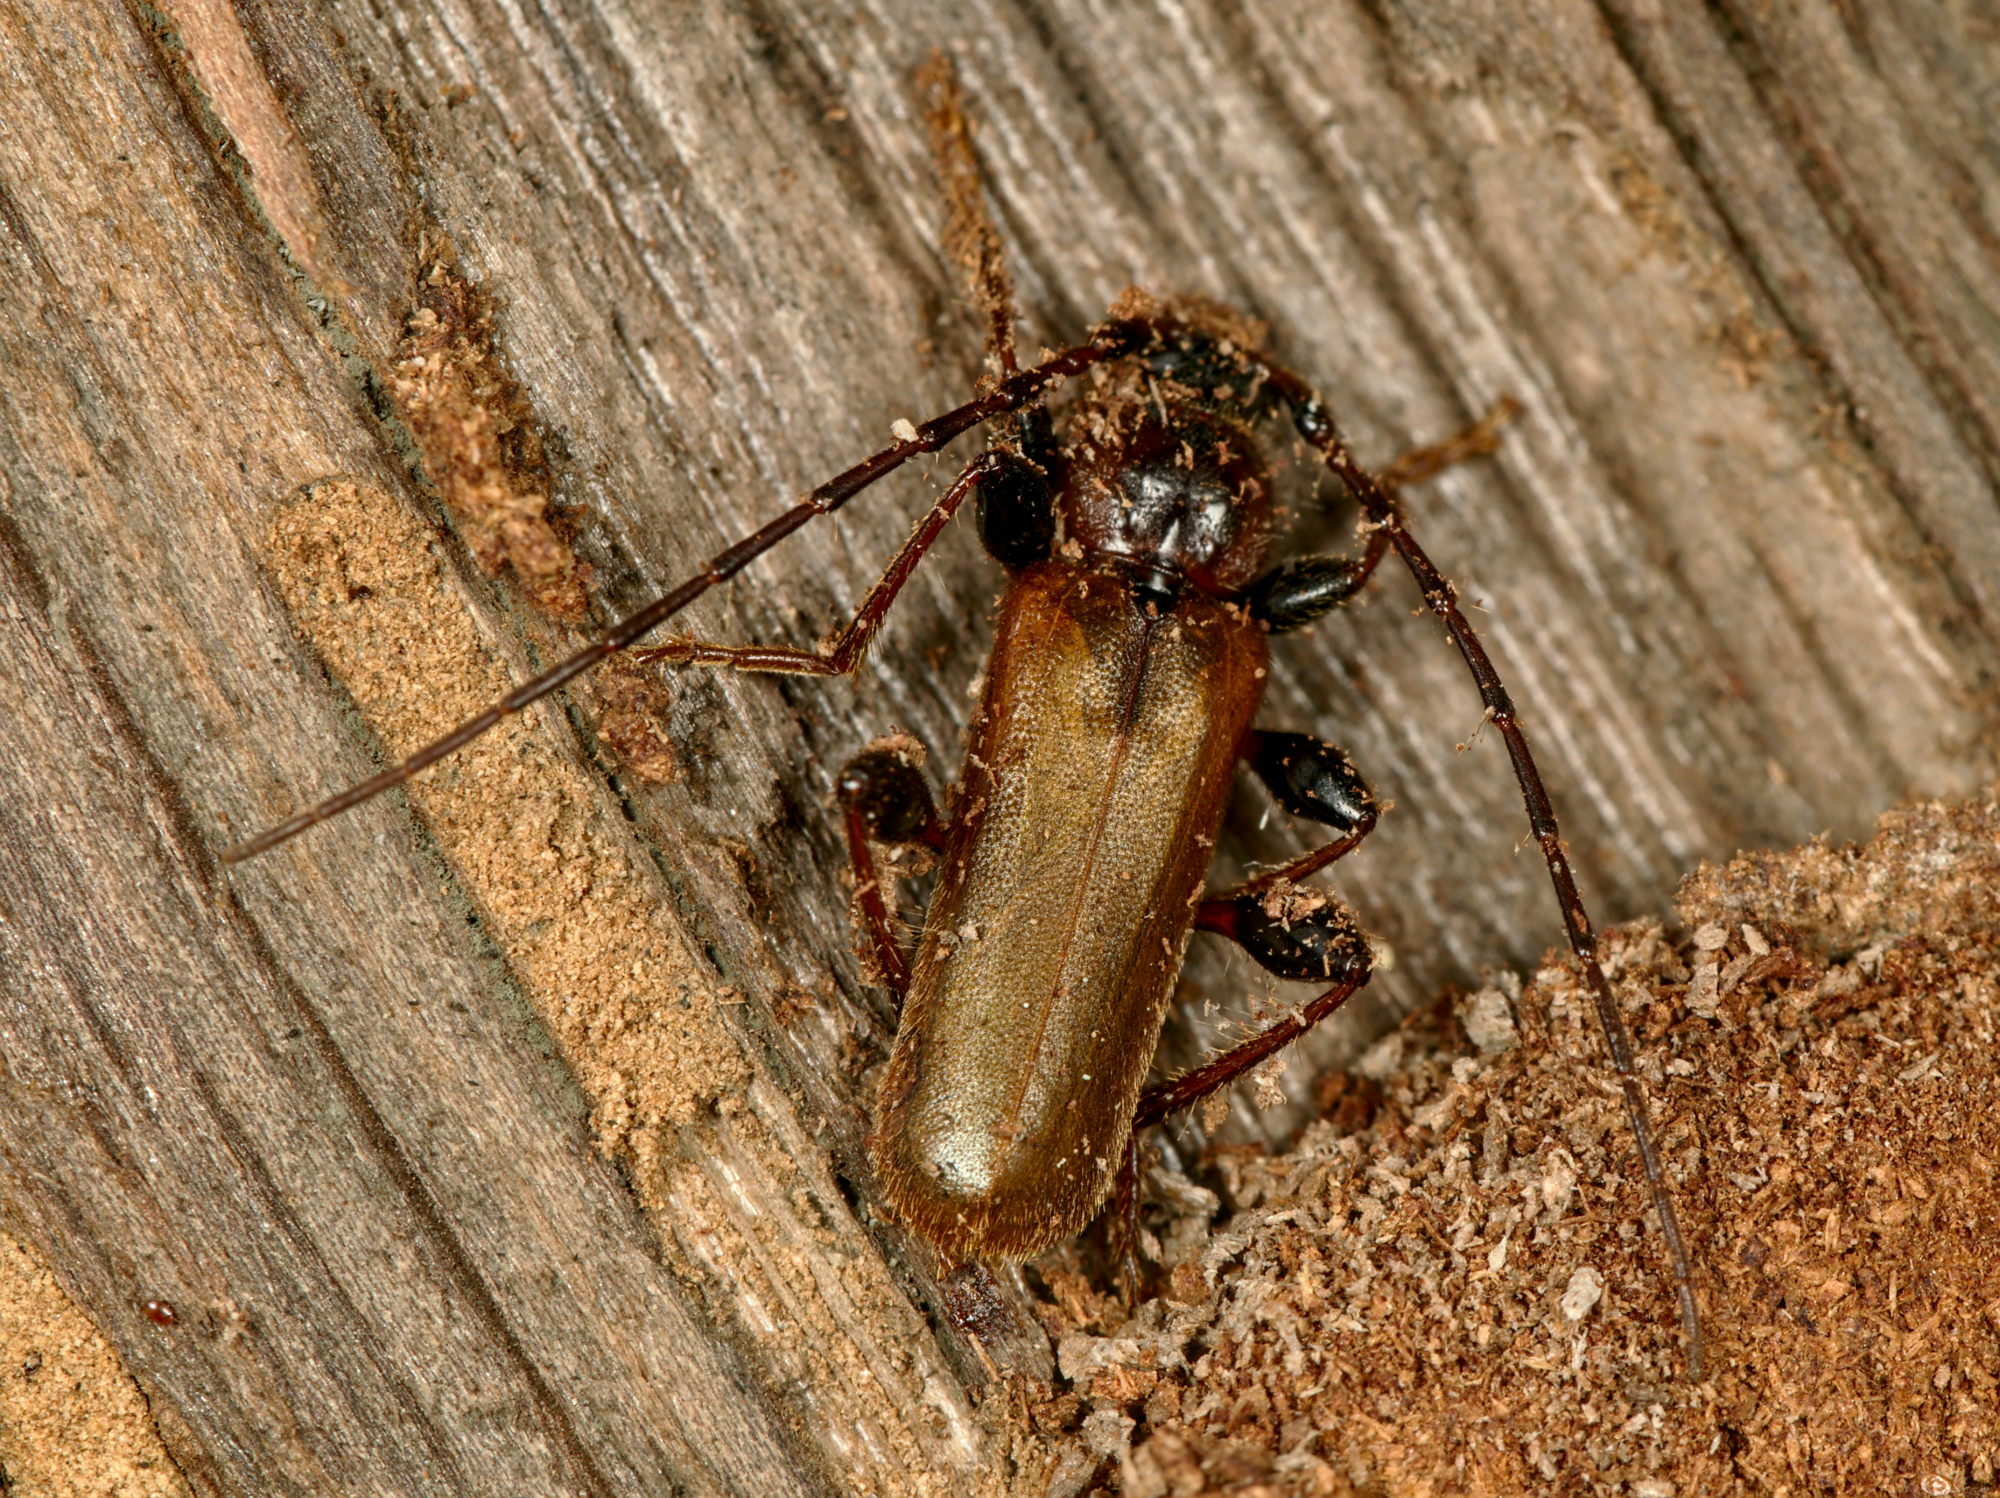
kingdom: Animalia
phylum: Arthropoda
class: Insecta
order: Coleoptera
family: Cerambycidae
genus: Phymatodes
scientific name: Phymatodes testaceus
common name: Long-horned beetle
